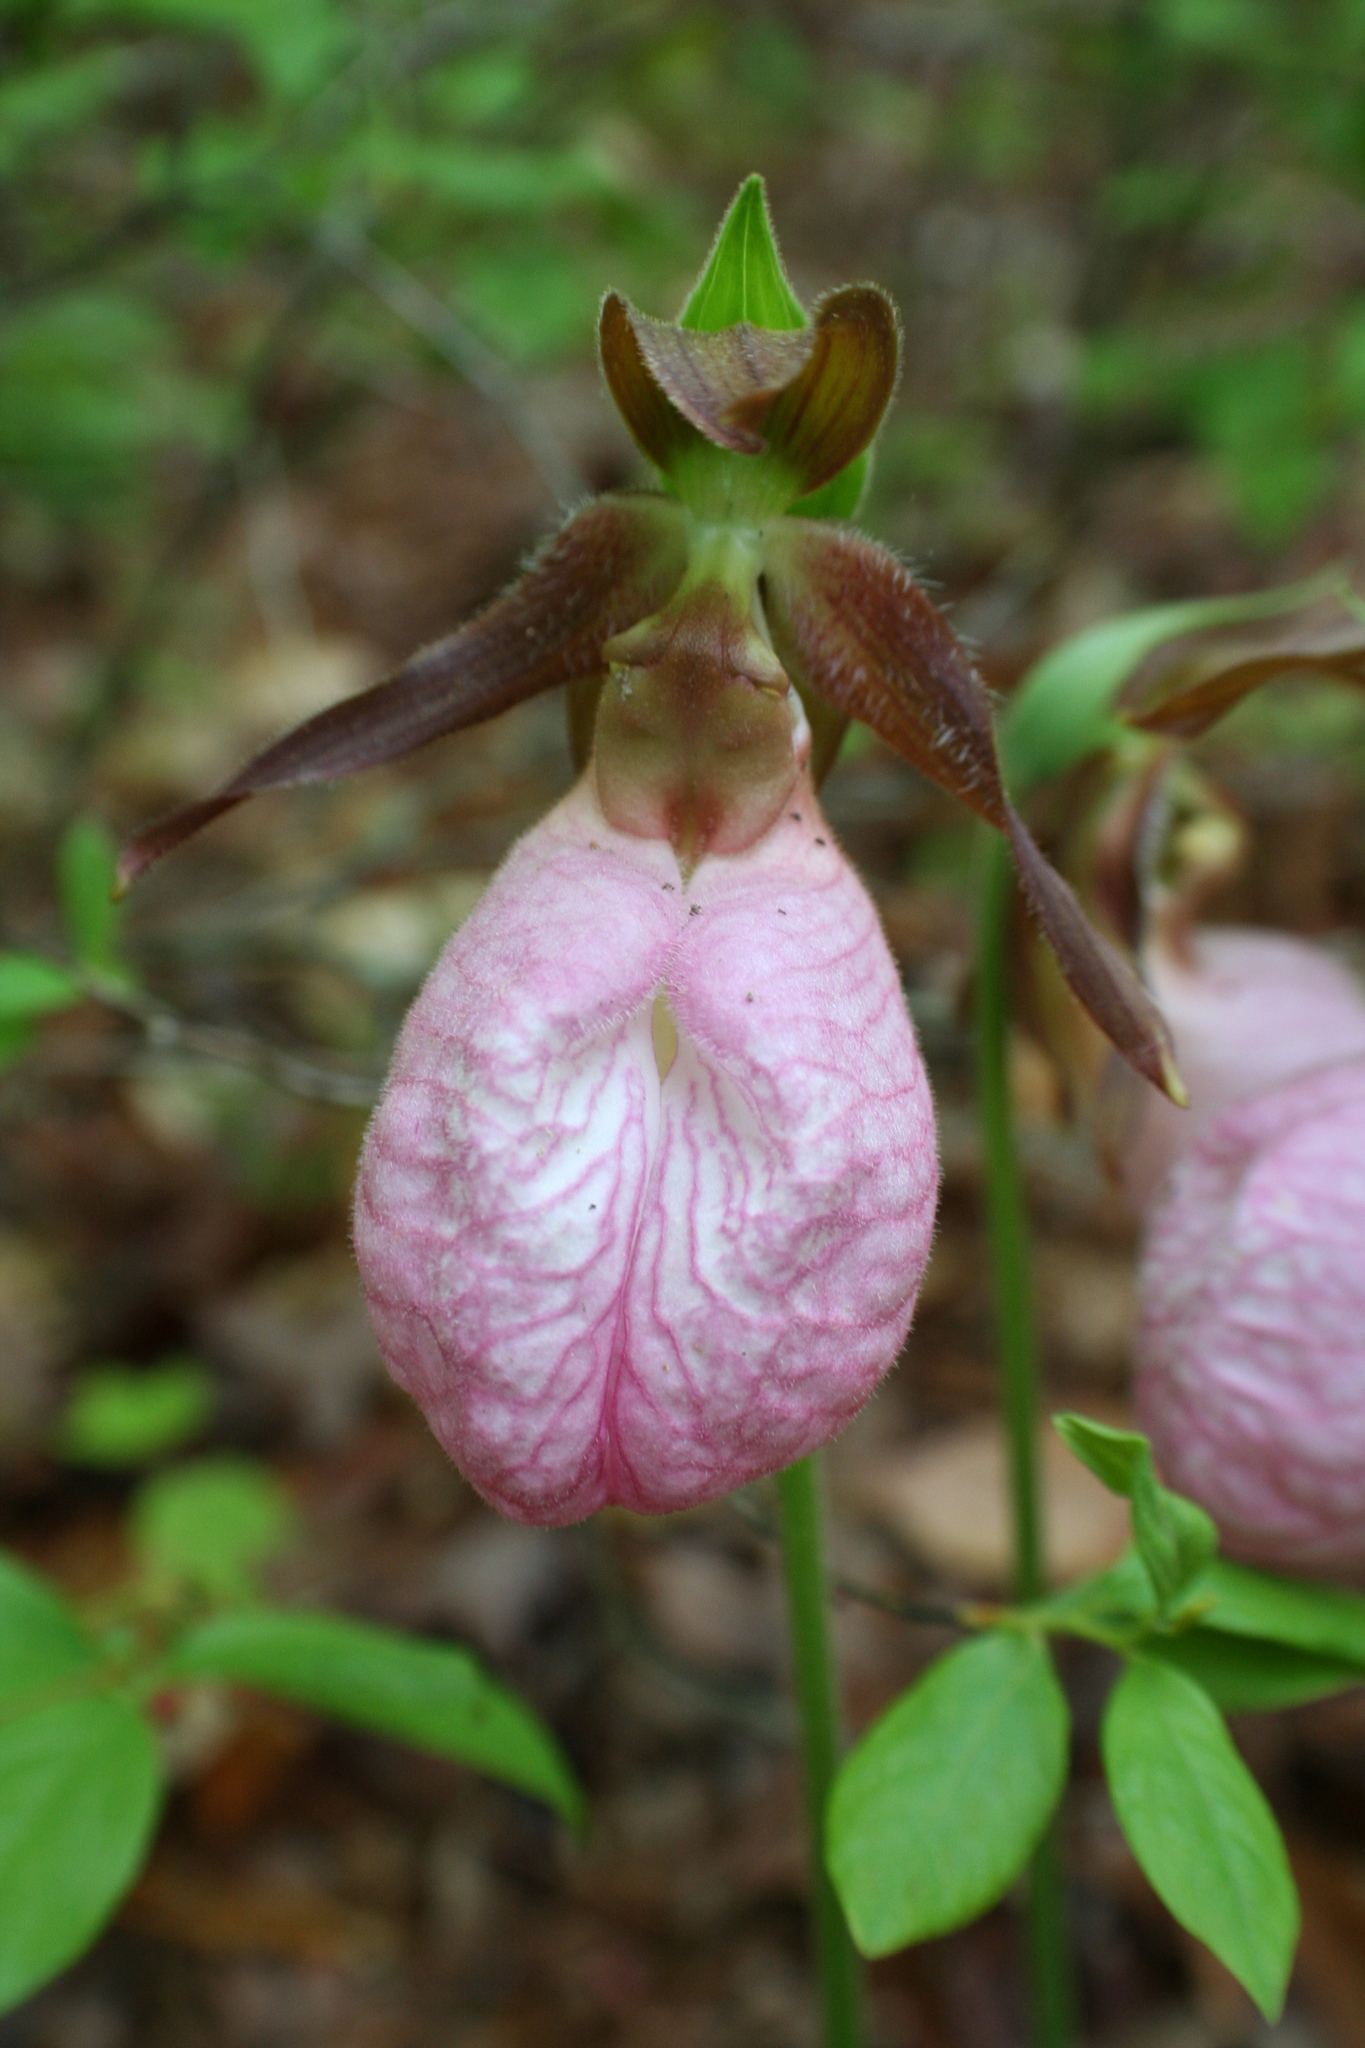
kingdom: Plantae
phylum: Tracheophyta
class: Liliopsida
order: Asparagales
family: Orchidaceae
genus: Cypripedium
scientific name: Cypripedium acaule
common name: Pink lady's-slipper
